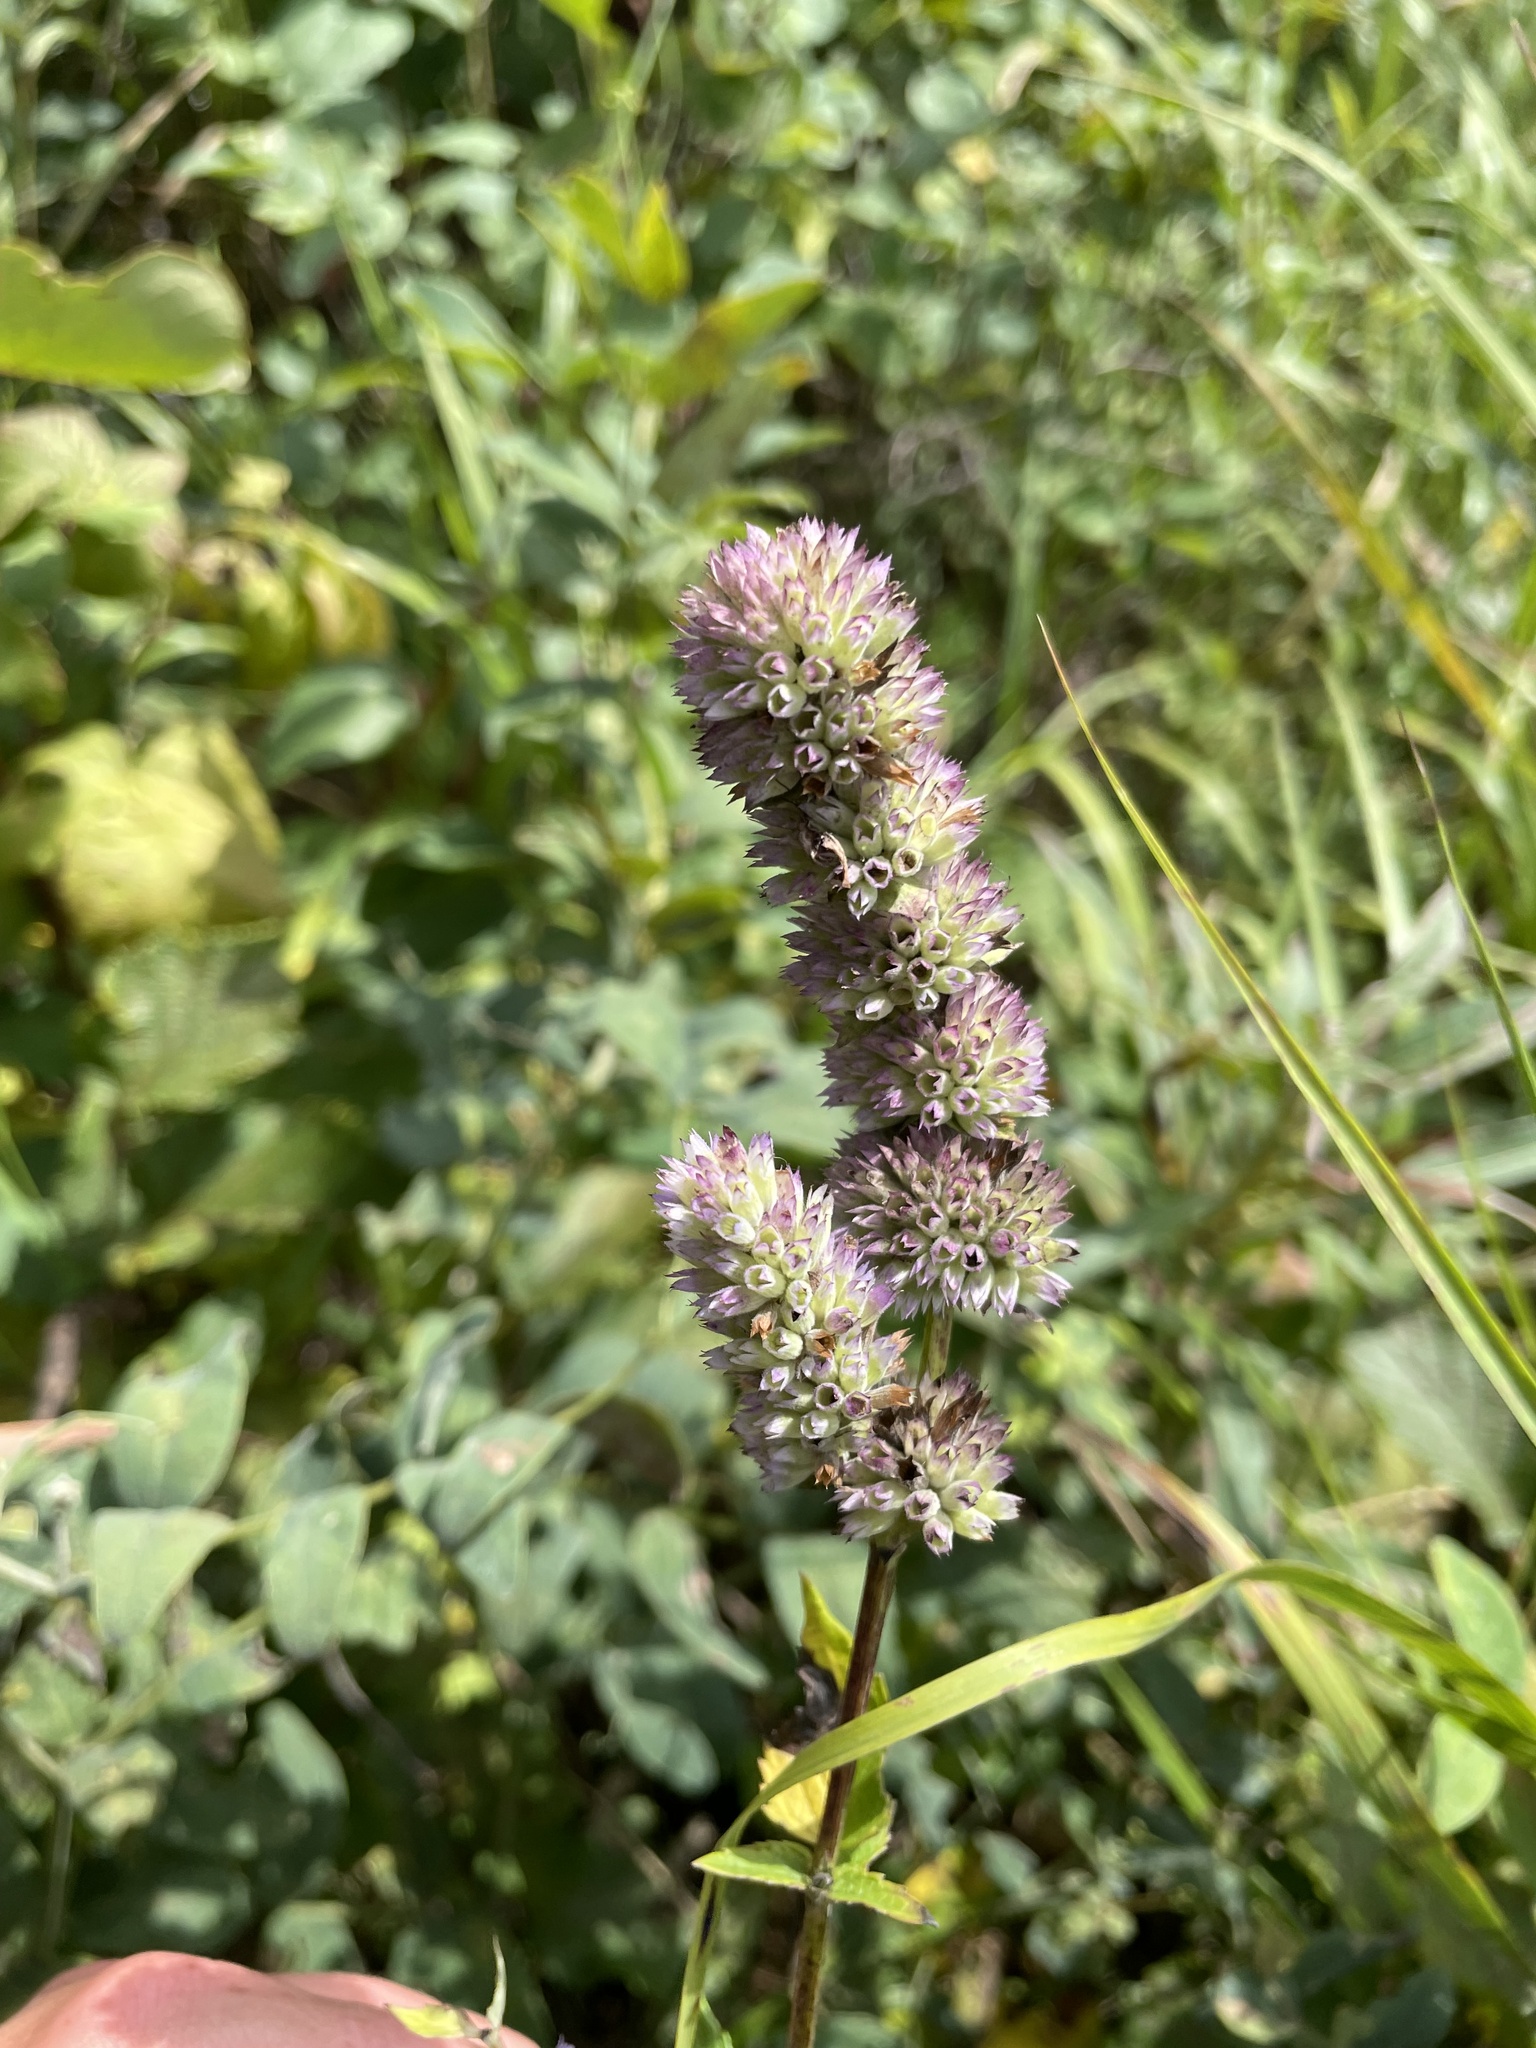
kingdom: Plantae
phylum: Tracheophyta
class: Magnoliopsida
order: Lamiales
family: Lamiaceae
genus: Agastache
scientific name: Agastache foeniculum
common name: Anise hyssop
